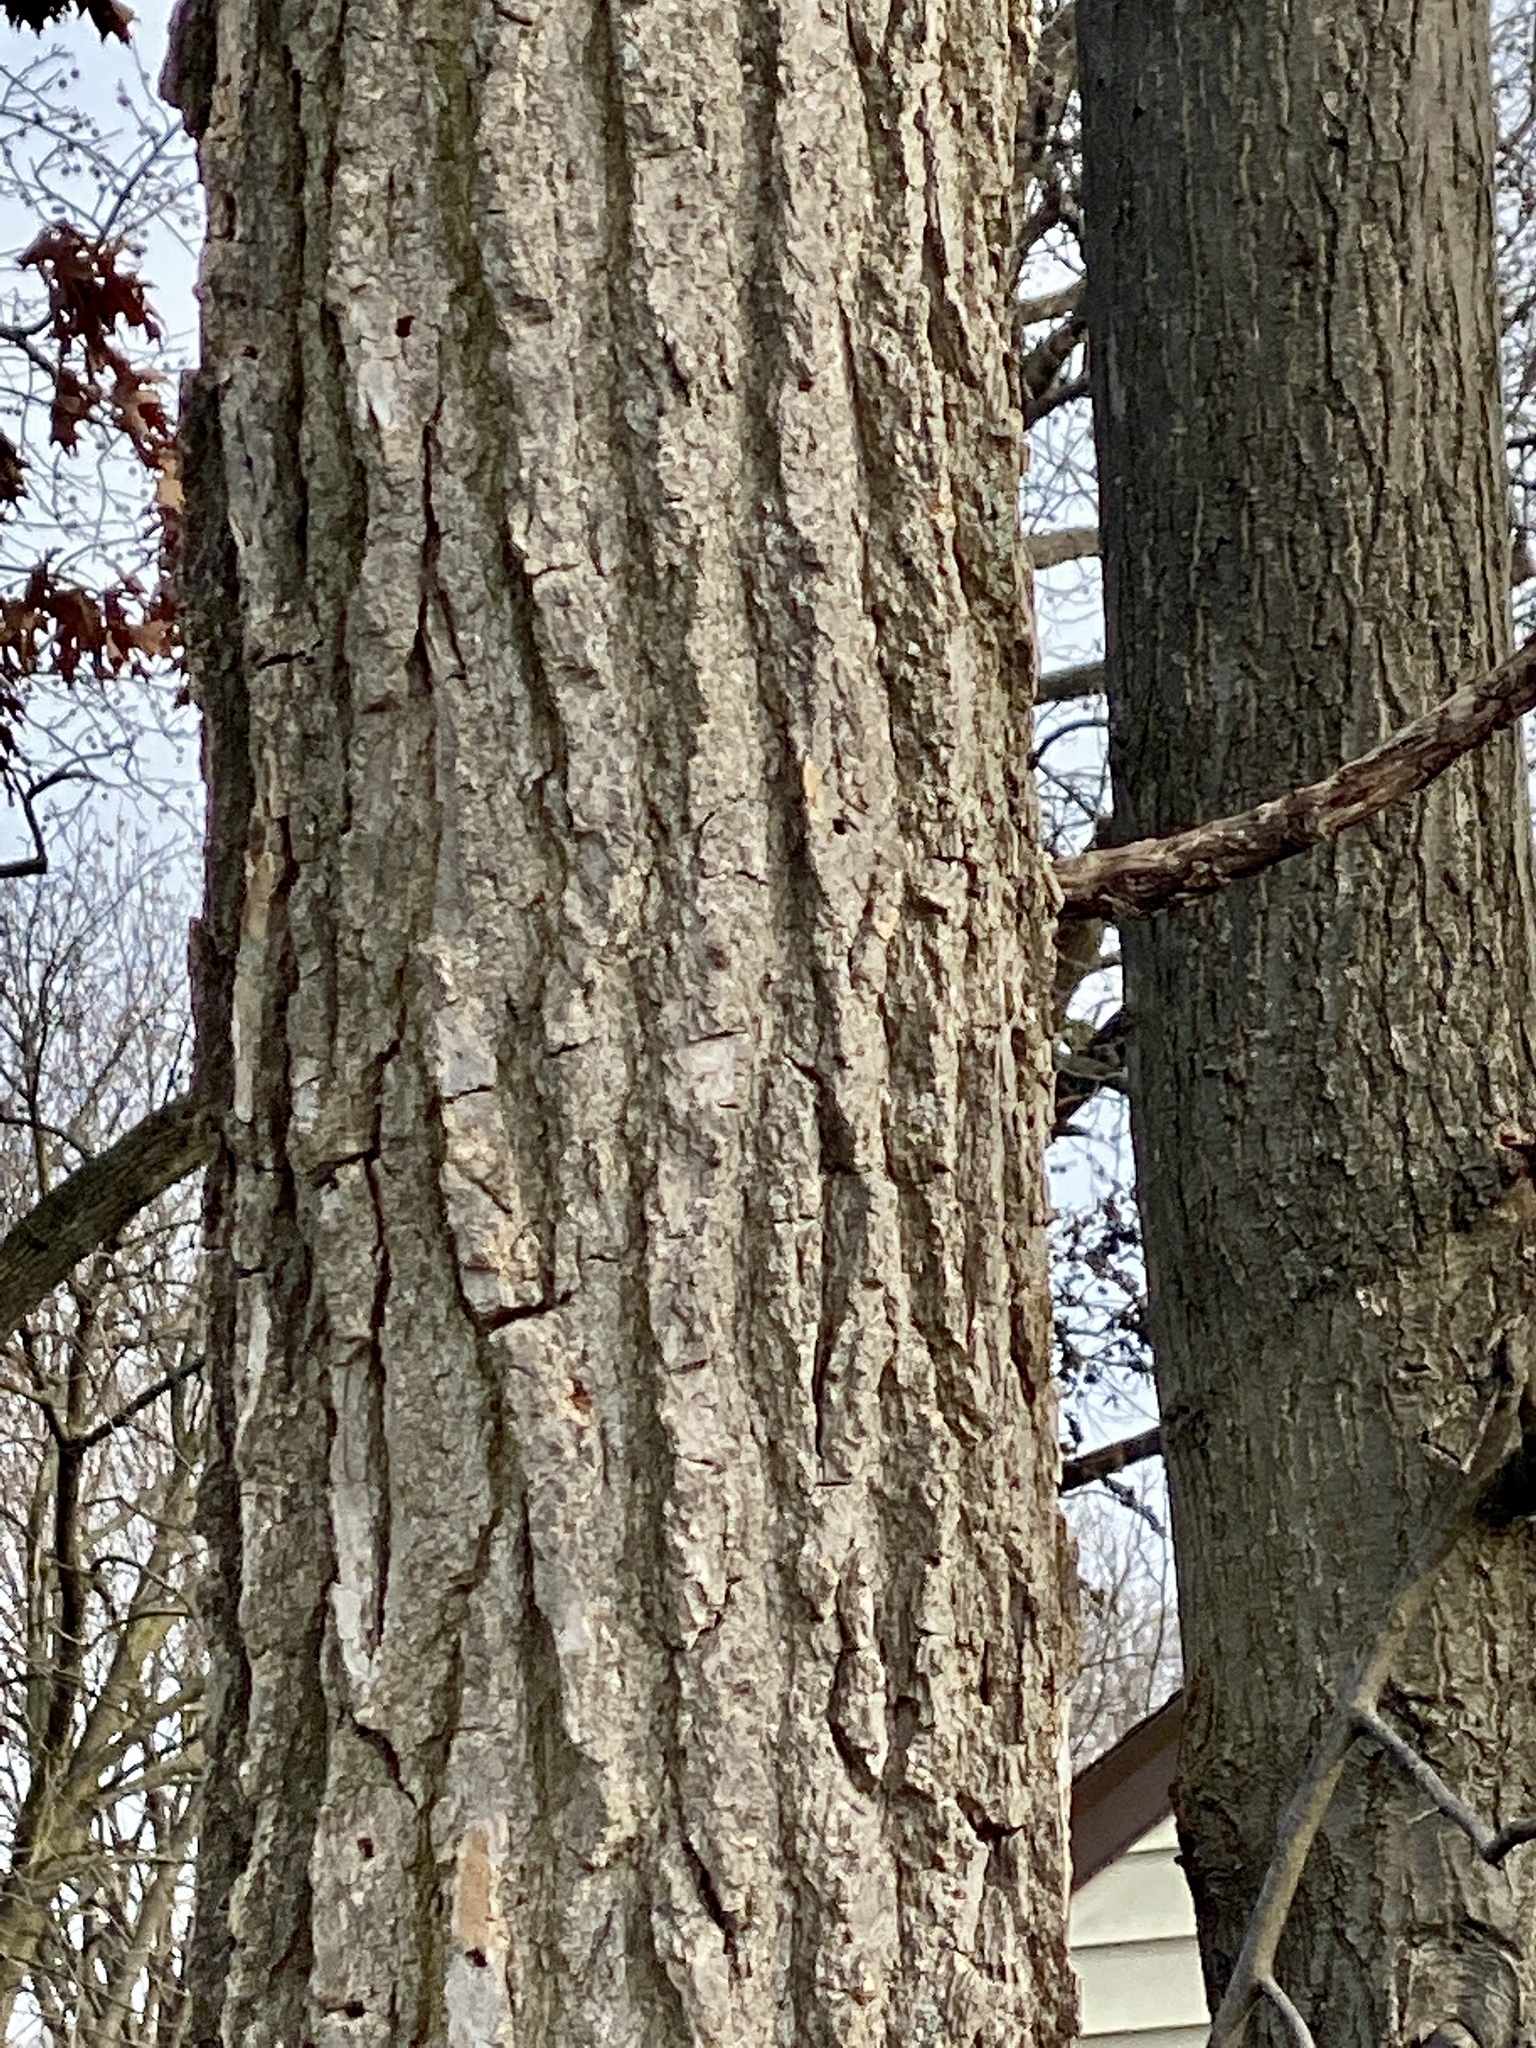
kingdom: Plantae
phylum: Tracheophyta
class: Magnoliopsida
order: Saxifragales
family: Altingiaceae
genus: Liquidambar
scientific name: Liquidambar styraciflua
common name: Sweet gum
